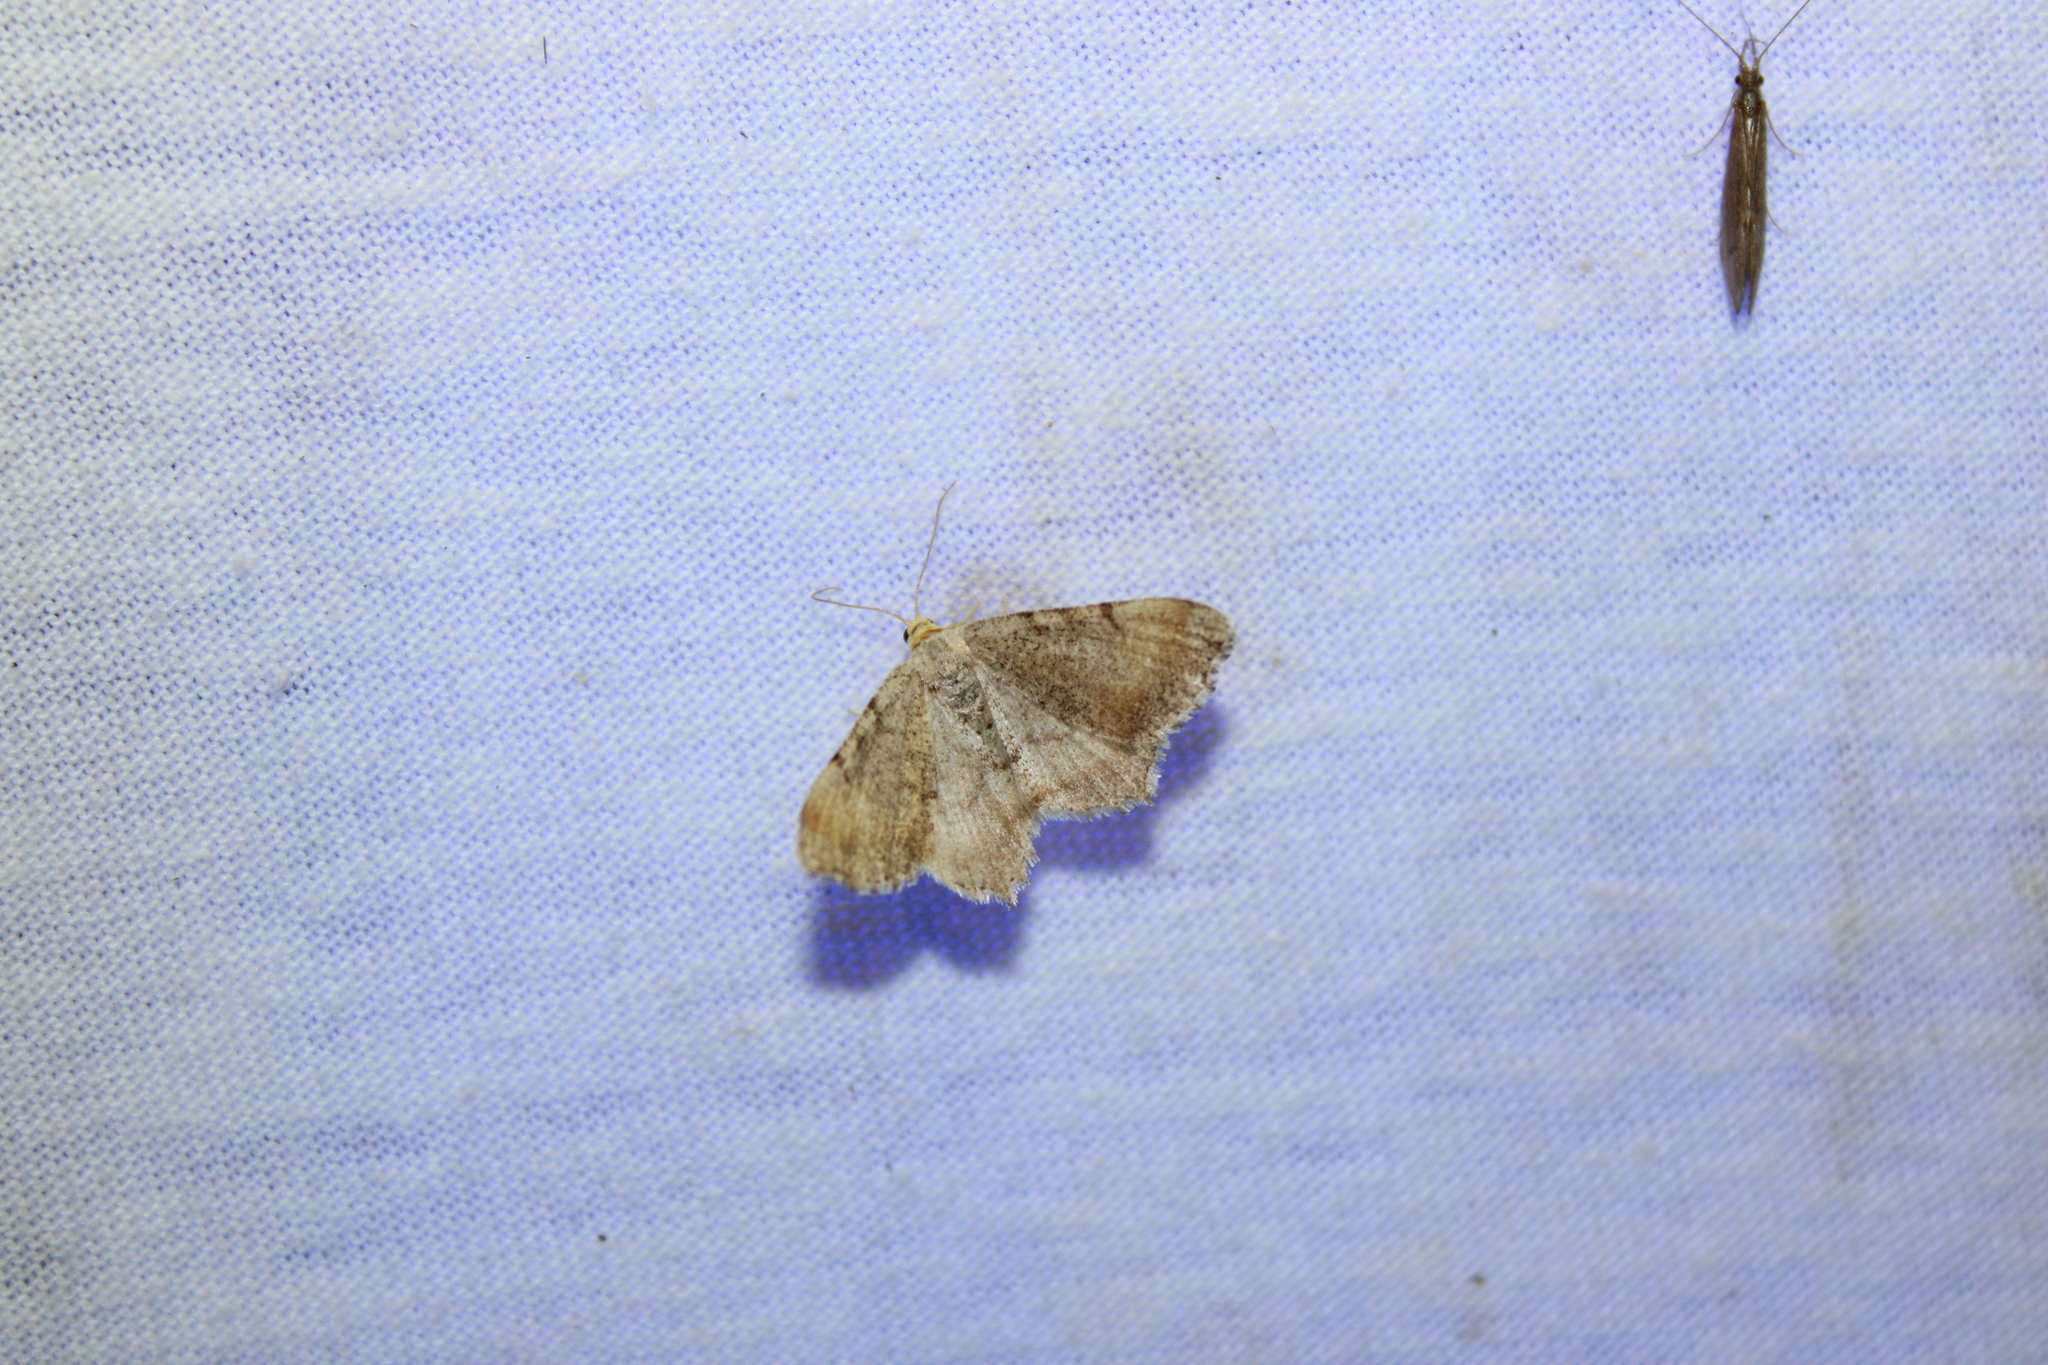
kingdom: Animalia
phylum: Arthropoda
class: Insecta
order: Lepidoptera
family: Geometridae
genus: Macaria
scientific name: Macaria minorata
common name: Minor angle moth
